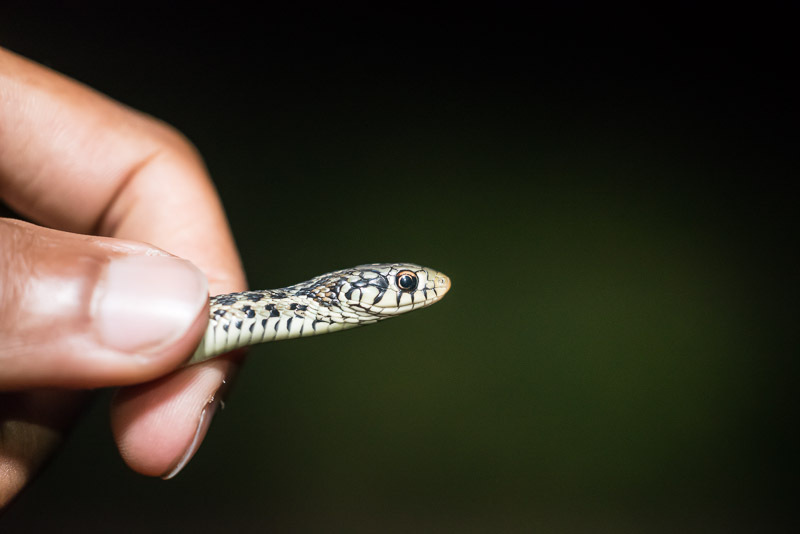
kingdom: Animalia
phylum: Chordata
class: Squamata
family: Colubridae
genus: Thamnophis
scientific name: Thamnophis sirtalis
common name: Common garter snake
